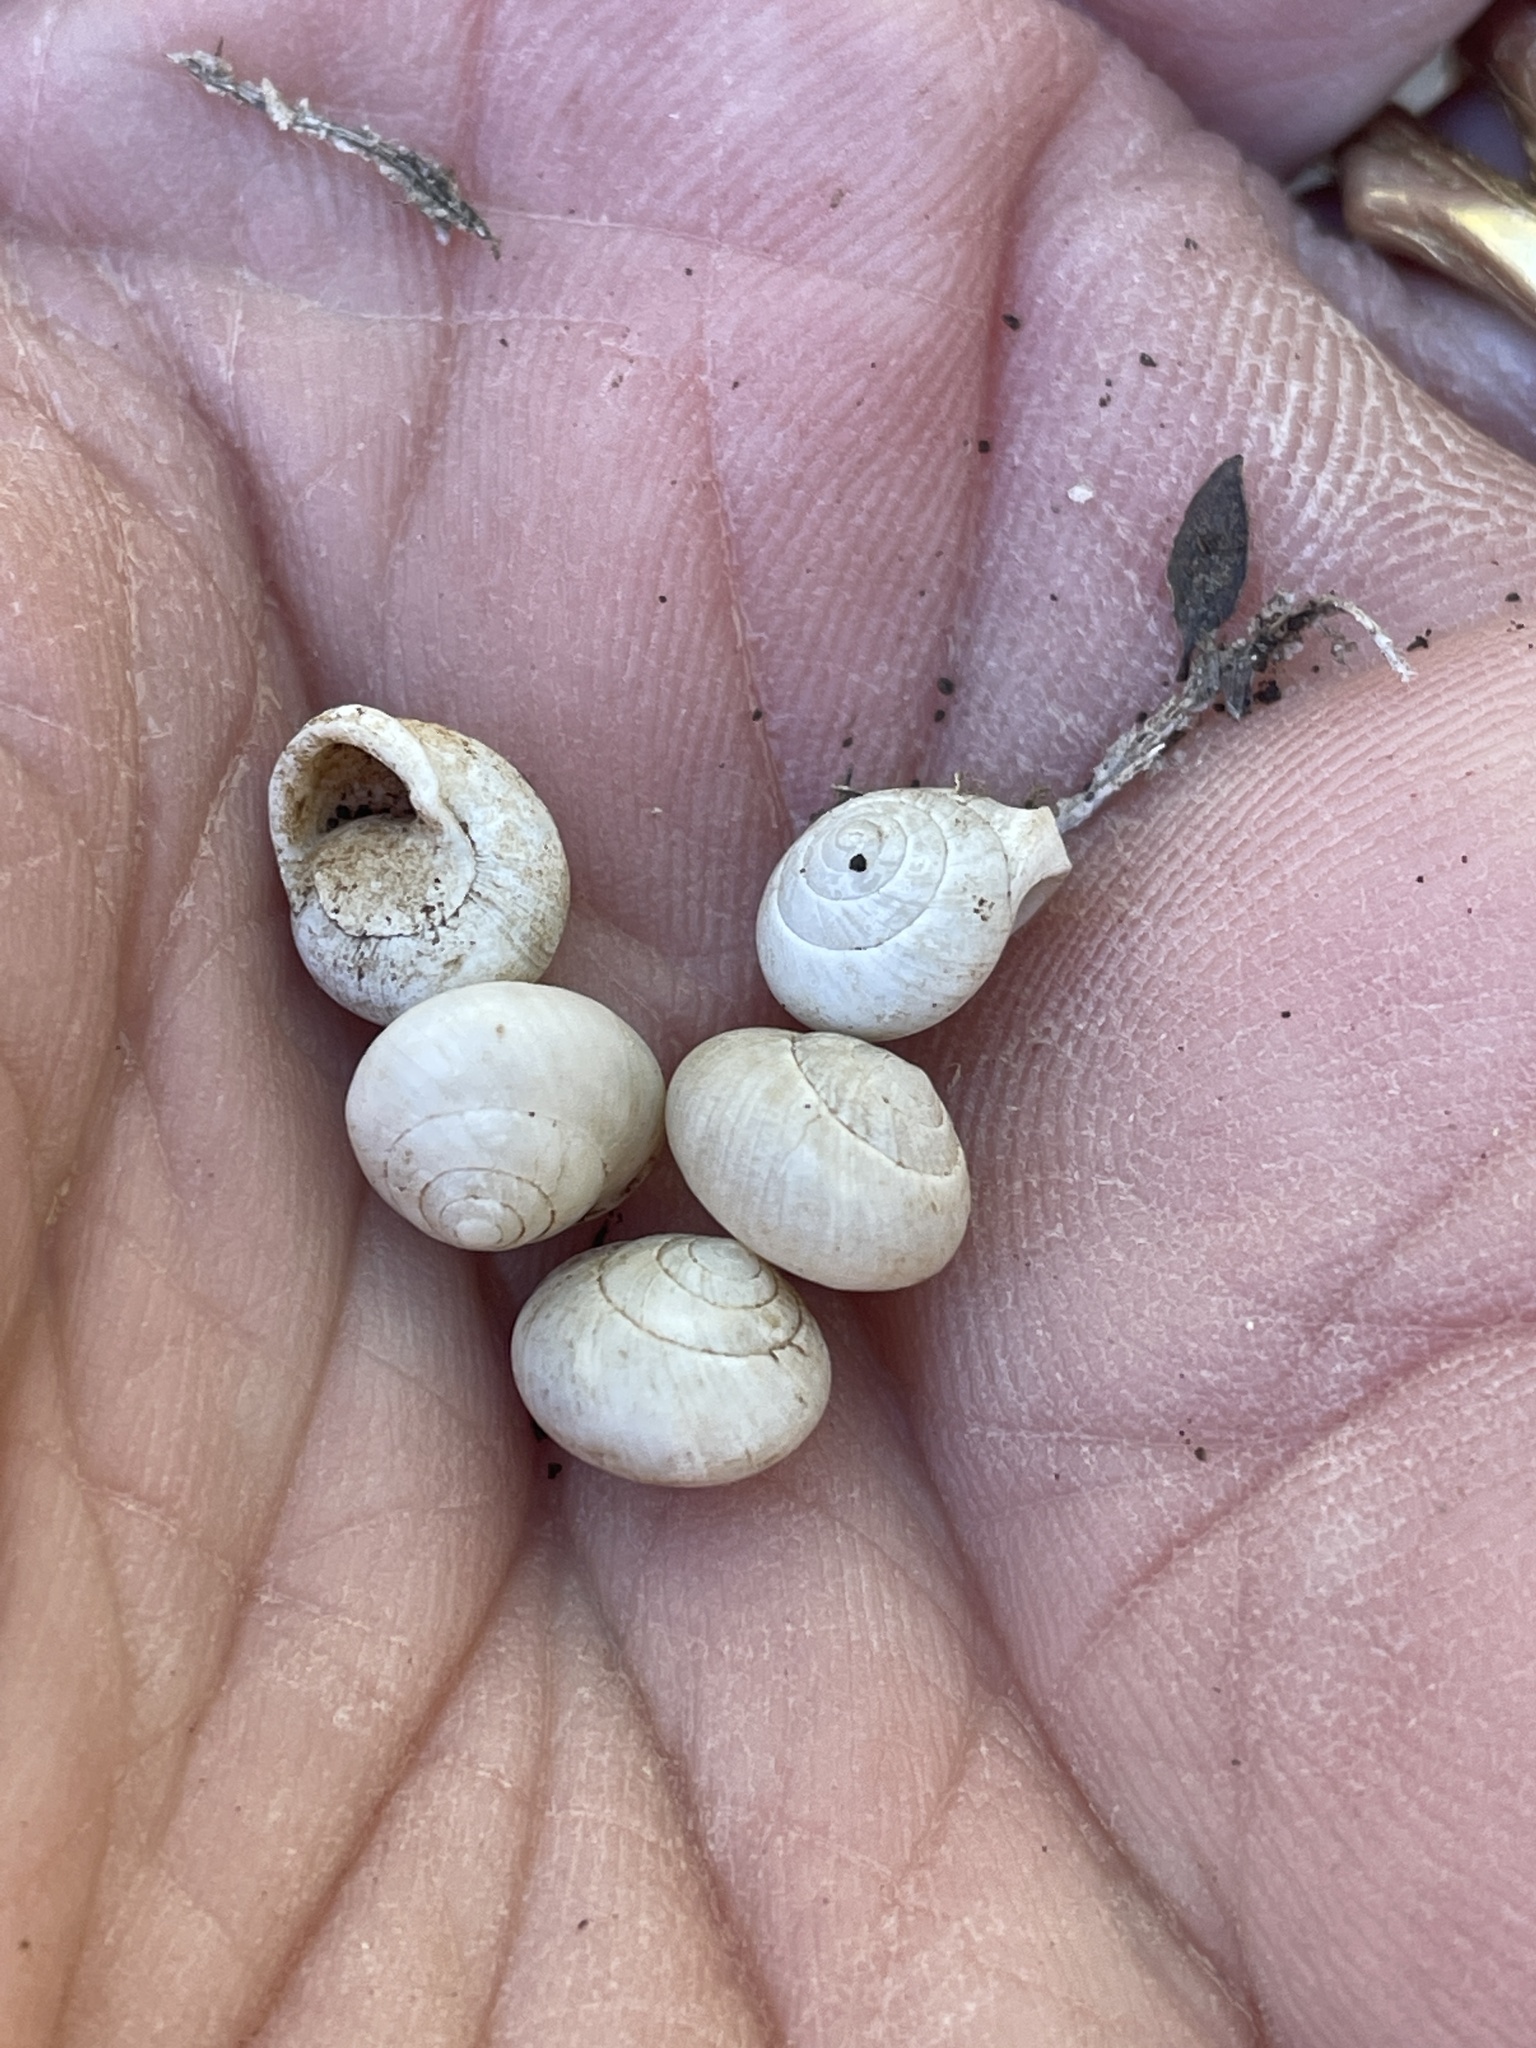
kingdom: Animalia
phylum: Mollusca
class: Gastropoda
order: Cycloneritida
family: Helicinidae
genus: Helicina
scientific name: Helicina orbiculata
